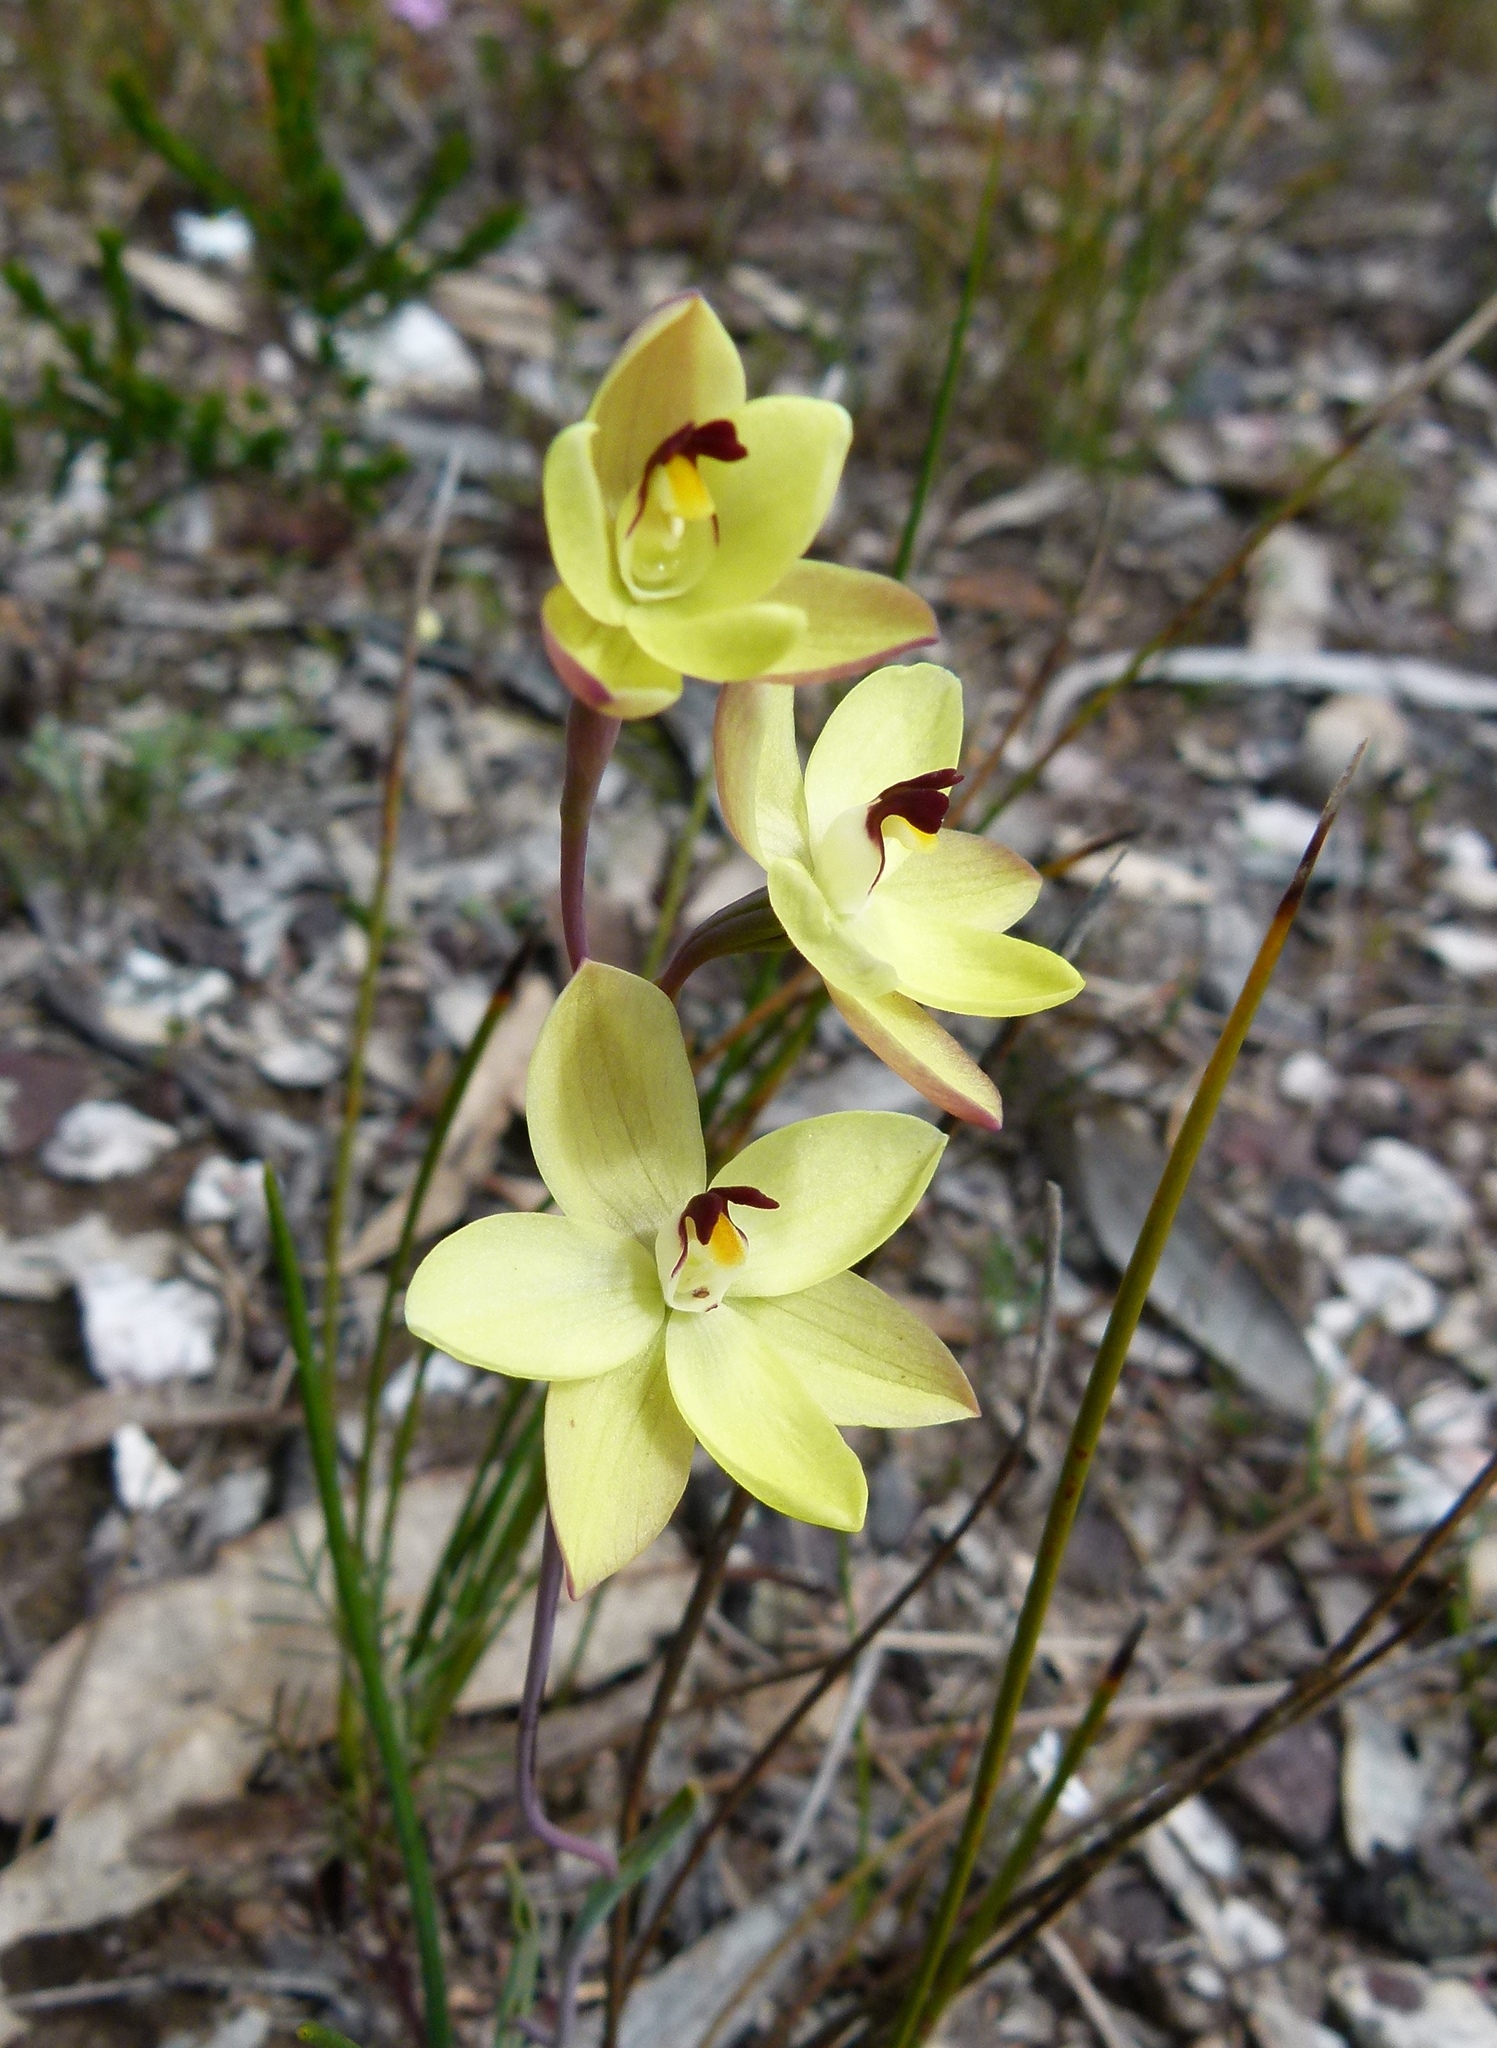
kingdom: Plantae
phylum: Tracheophyta
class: Liliopsida
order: Asparagales
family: Orchidaceae
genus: Thelymitra
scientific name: Thelymitra antennifera
